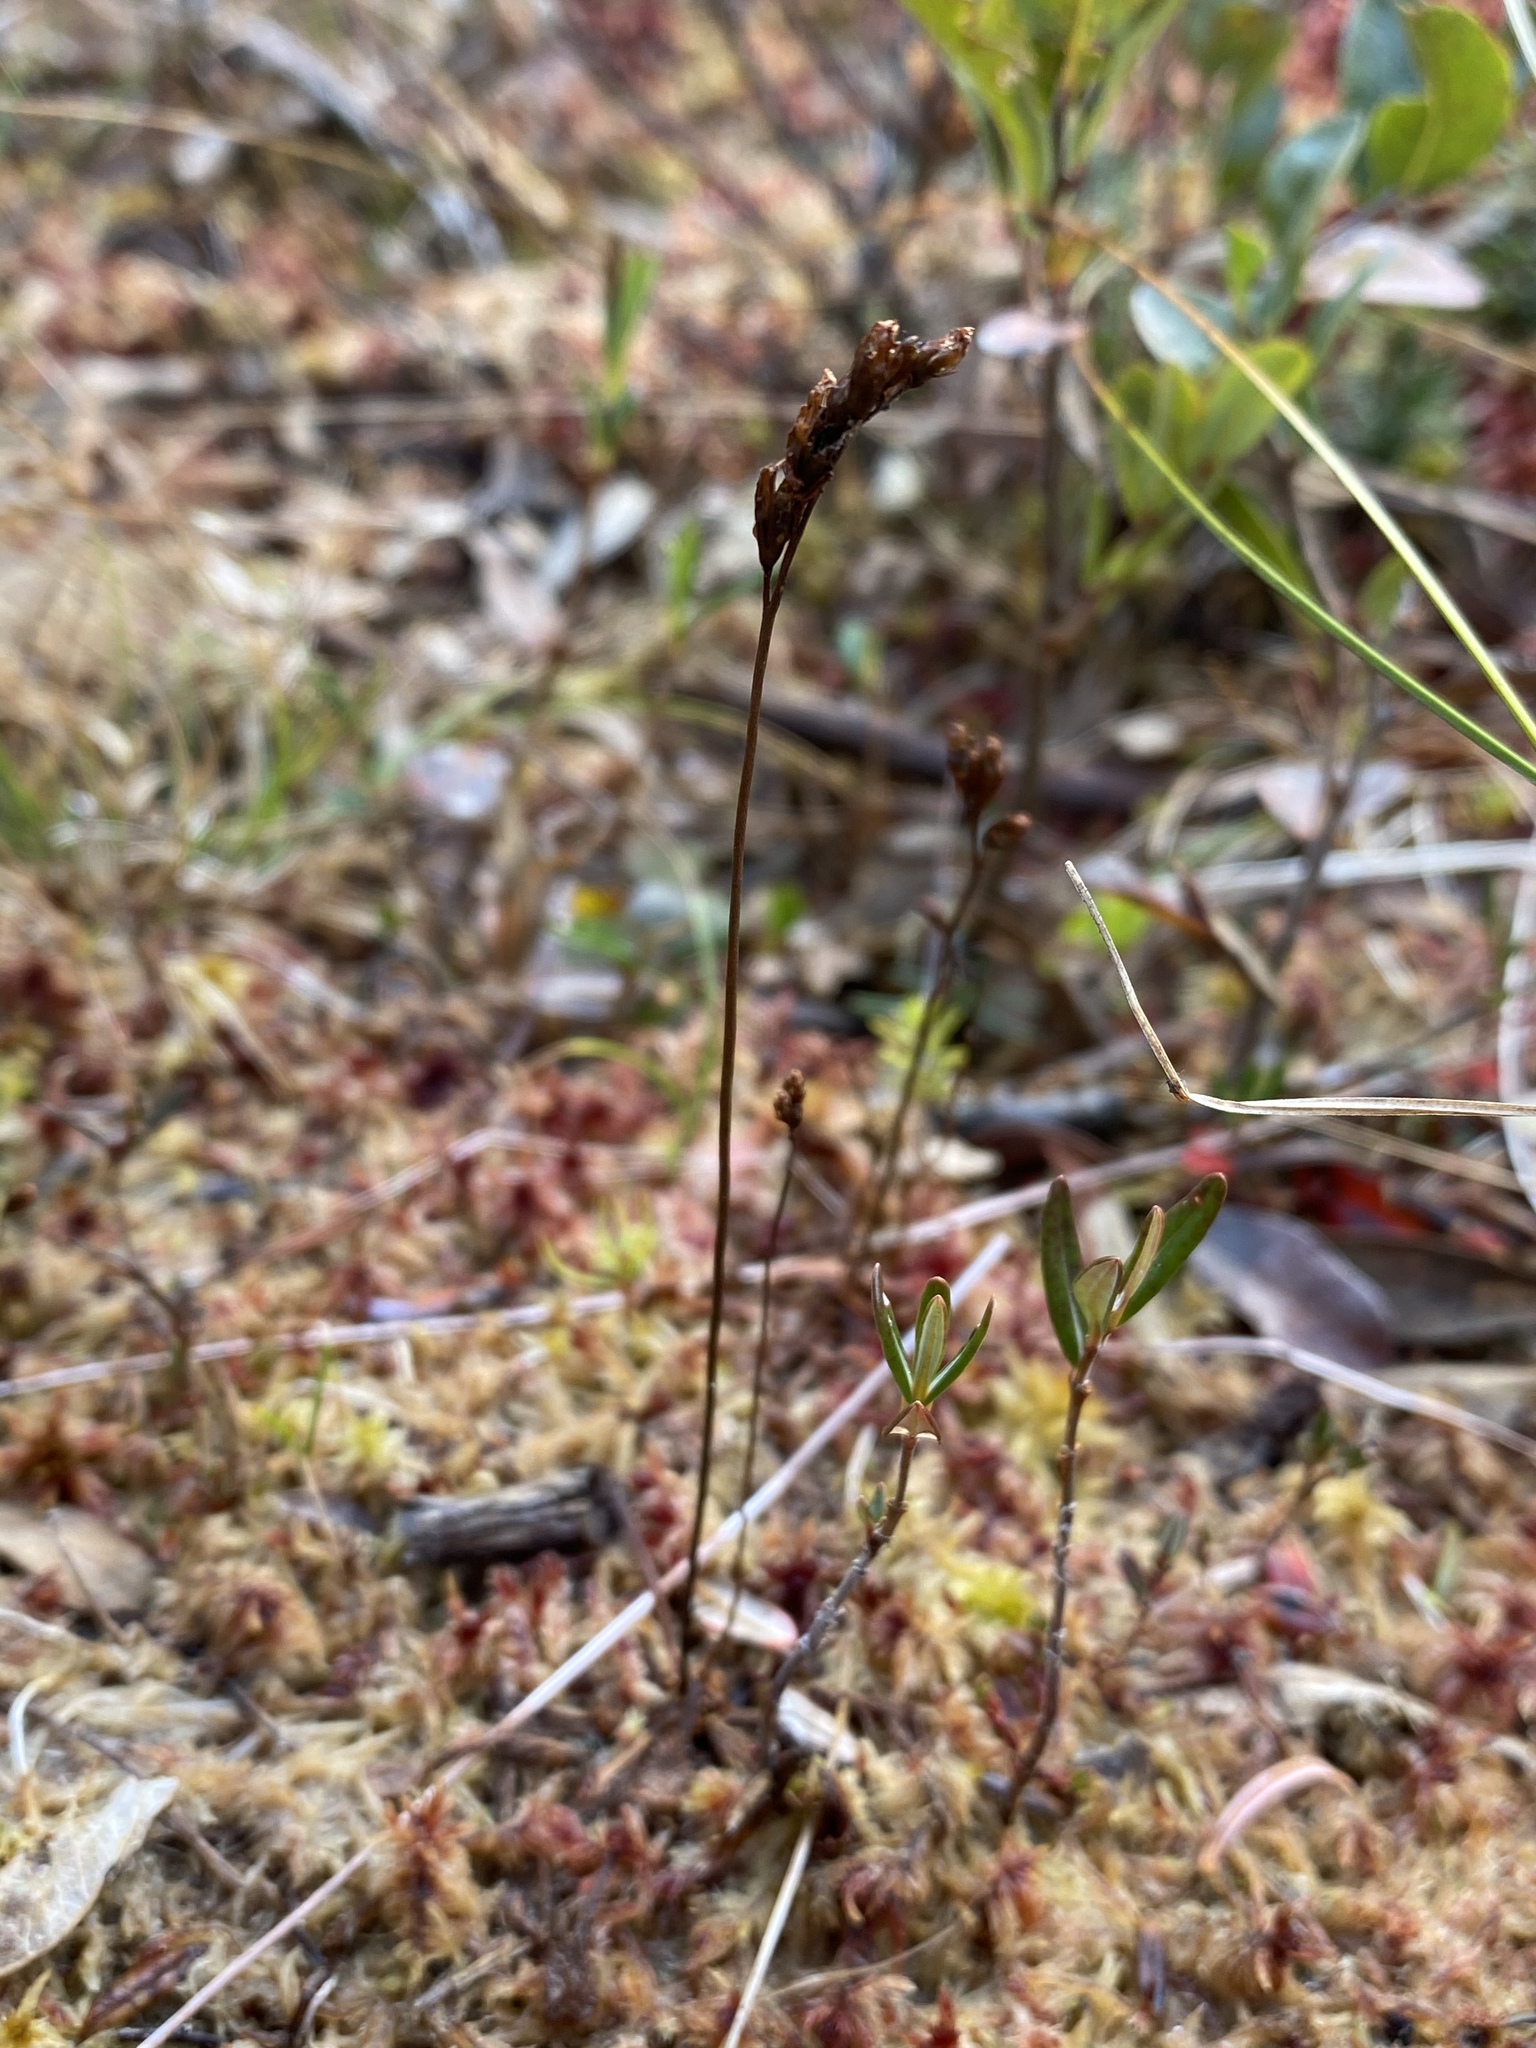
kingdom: Plantae
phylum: Tracheophyta
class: Magnoliopsida
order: Caryophyllales
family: Droseraceae
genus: Drosera
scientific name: Drosera rotundifolia
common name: Round-leaved sundew
